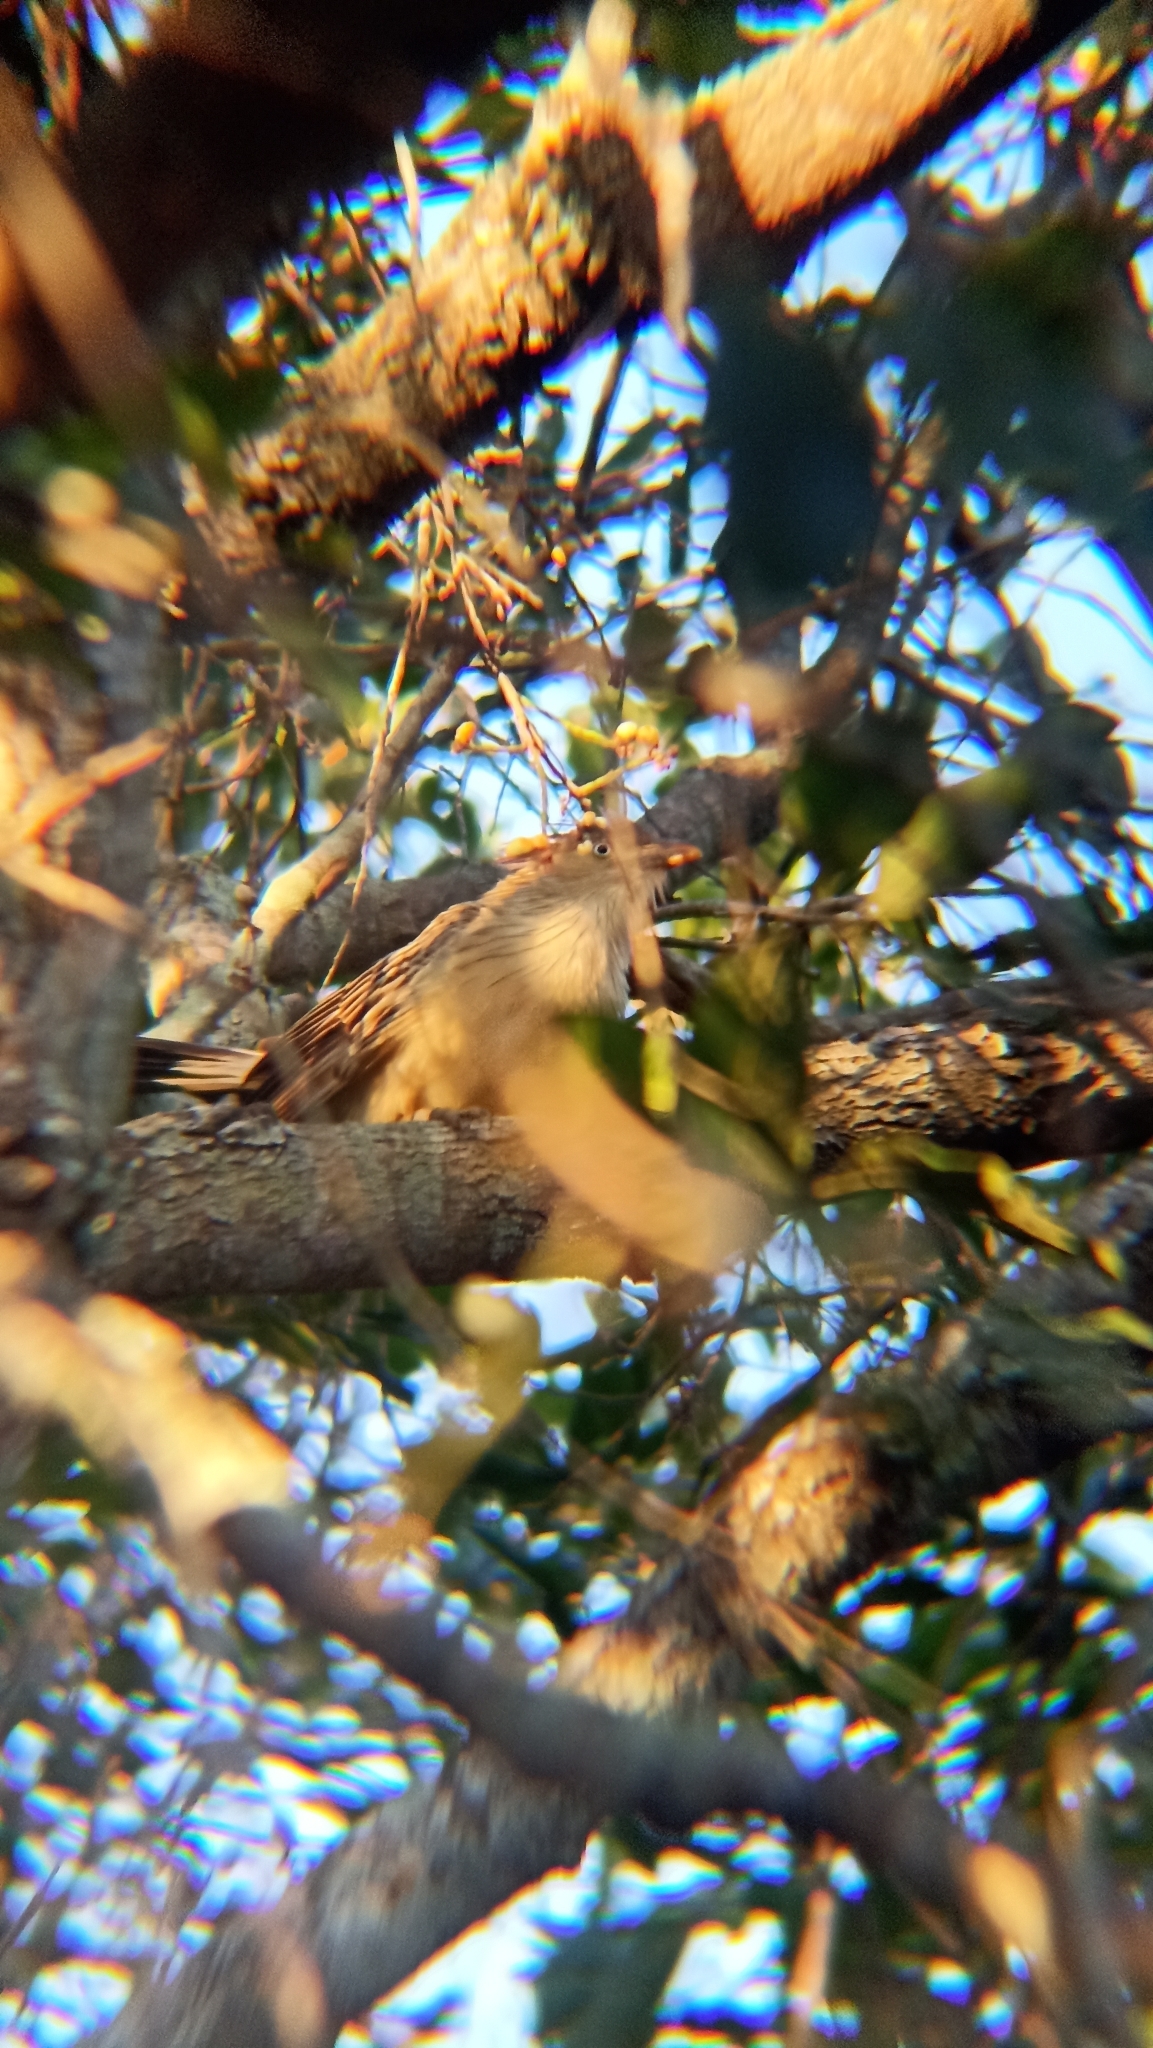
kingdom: Animalia
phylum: Chordata
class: Aves
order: Cuculiformes
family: Cuculidae
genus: Guira
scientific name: Guira guira
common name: Guira cuckoo
